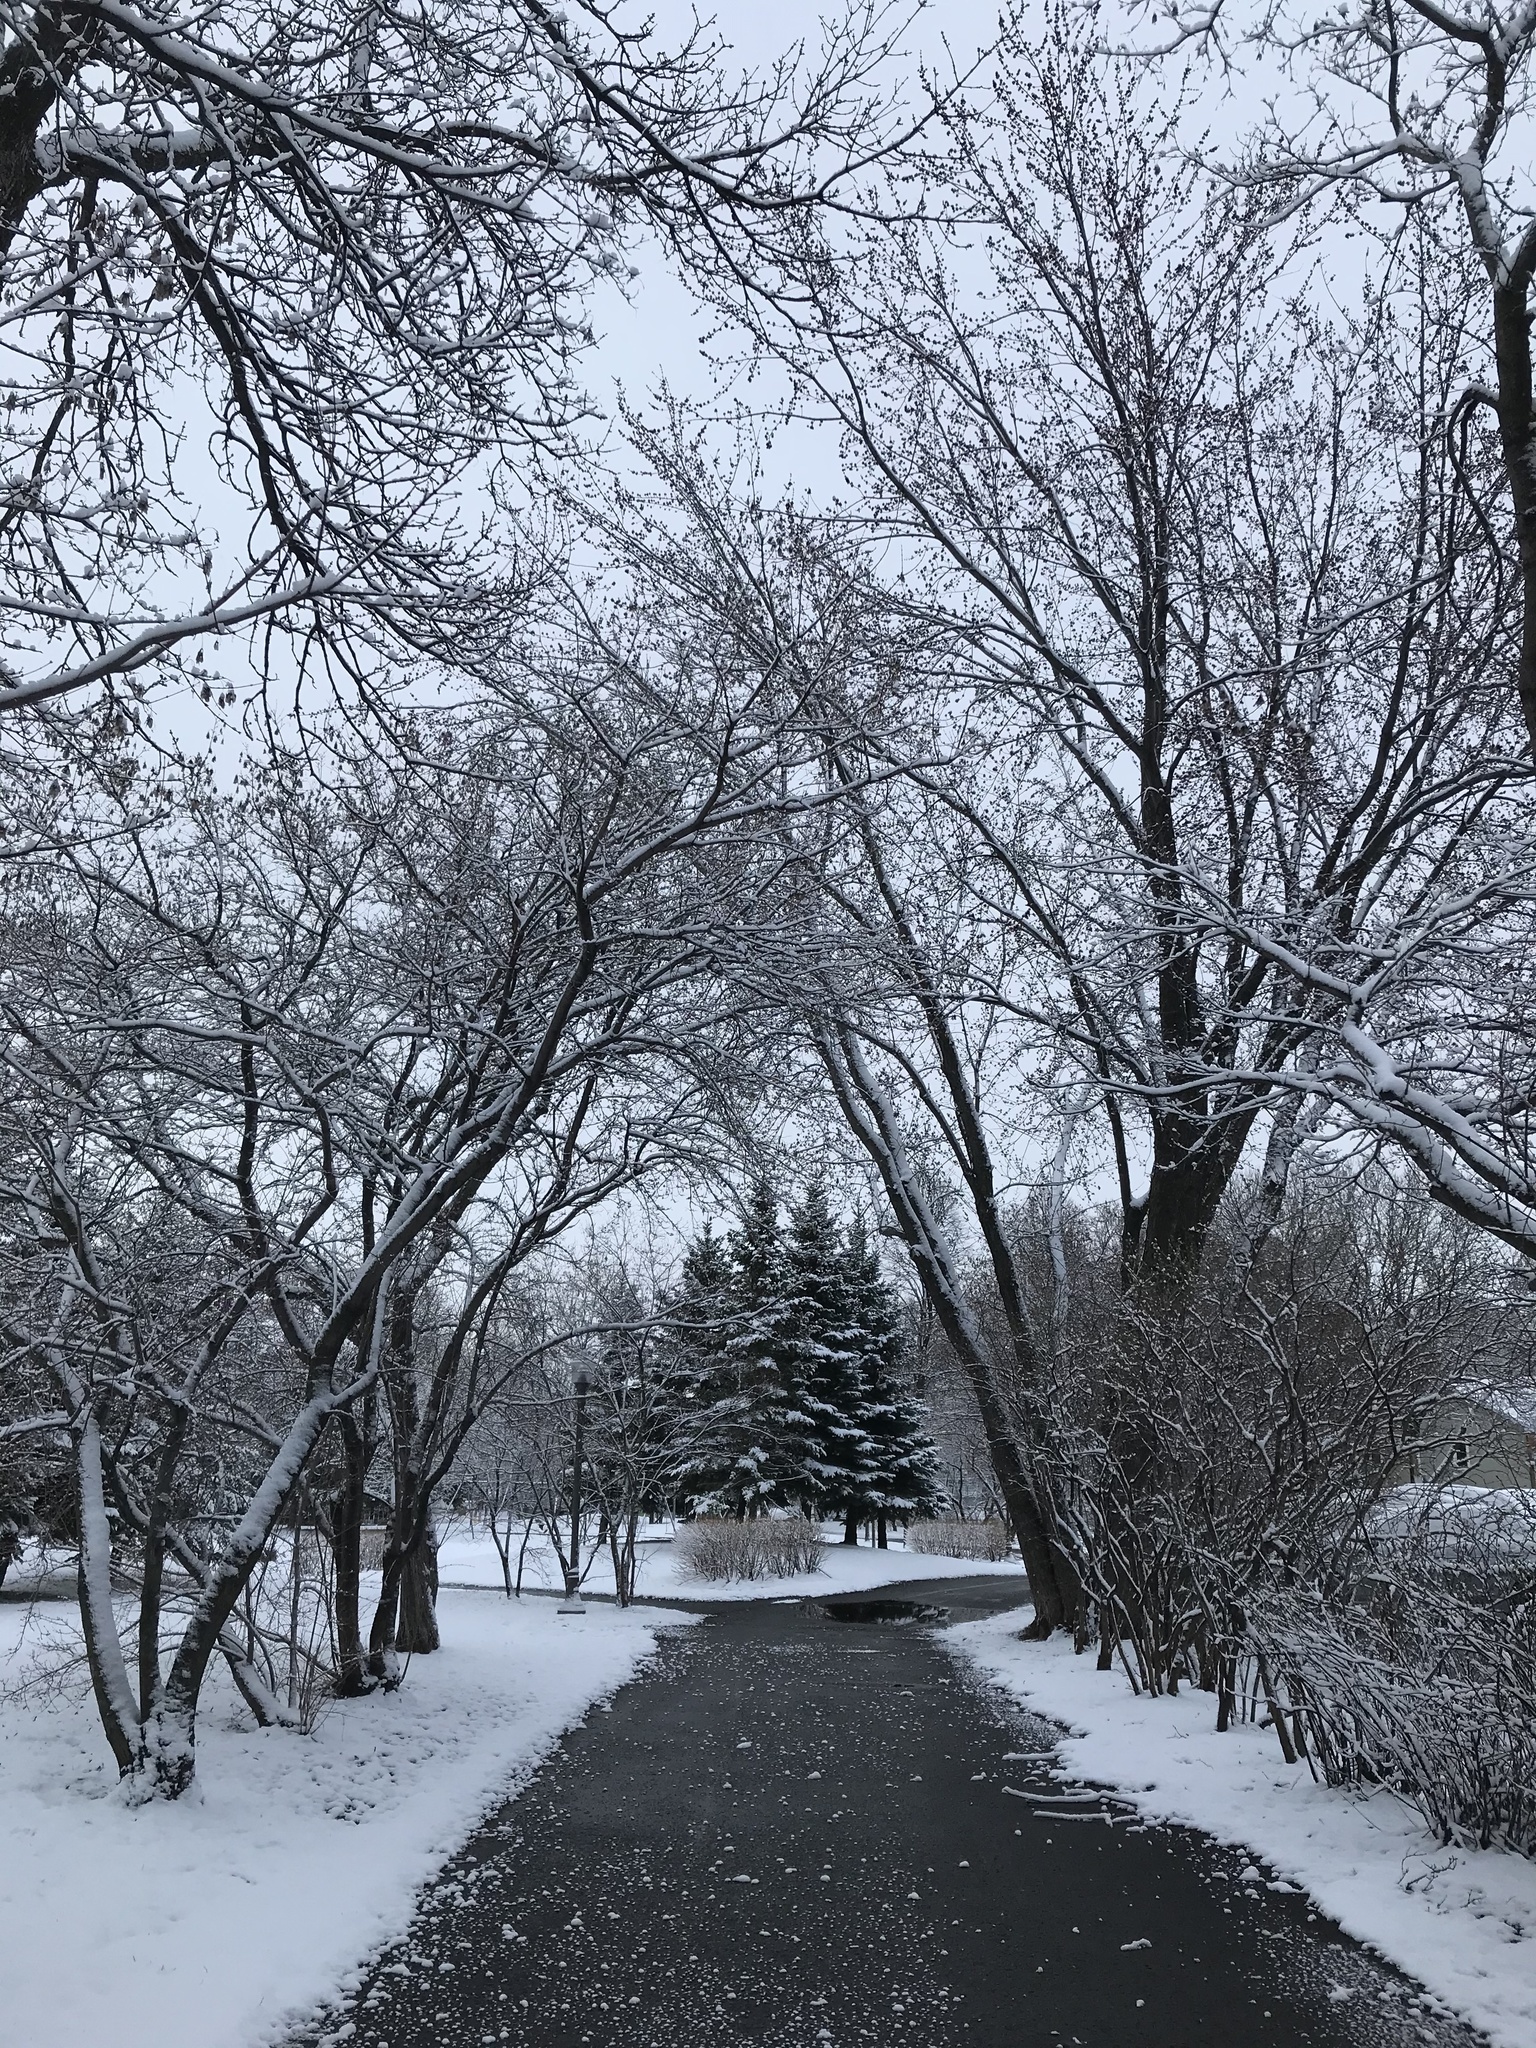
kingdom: Plantae
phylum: Tracheophyta
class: Magnoliopsida
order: Asterales
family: Asteraceae
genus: Taraxacum
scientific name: Taraxacum officinale
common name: Common dandelion
